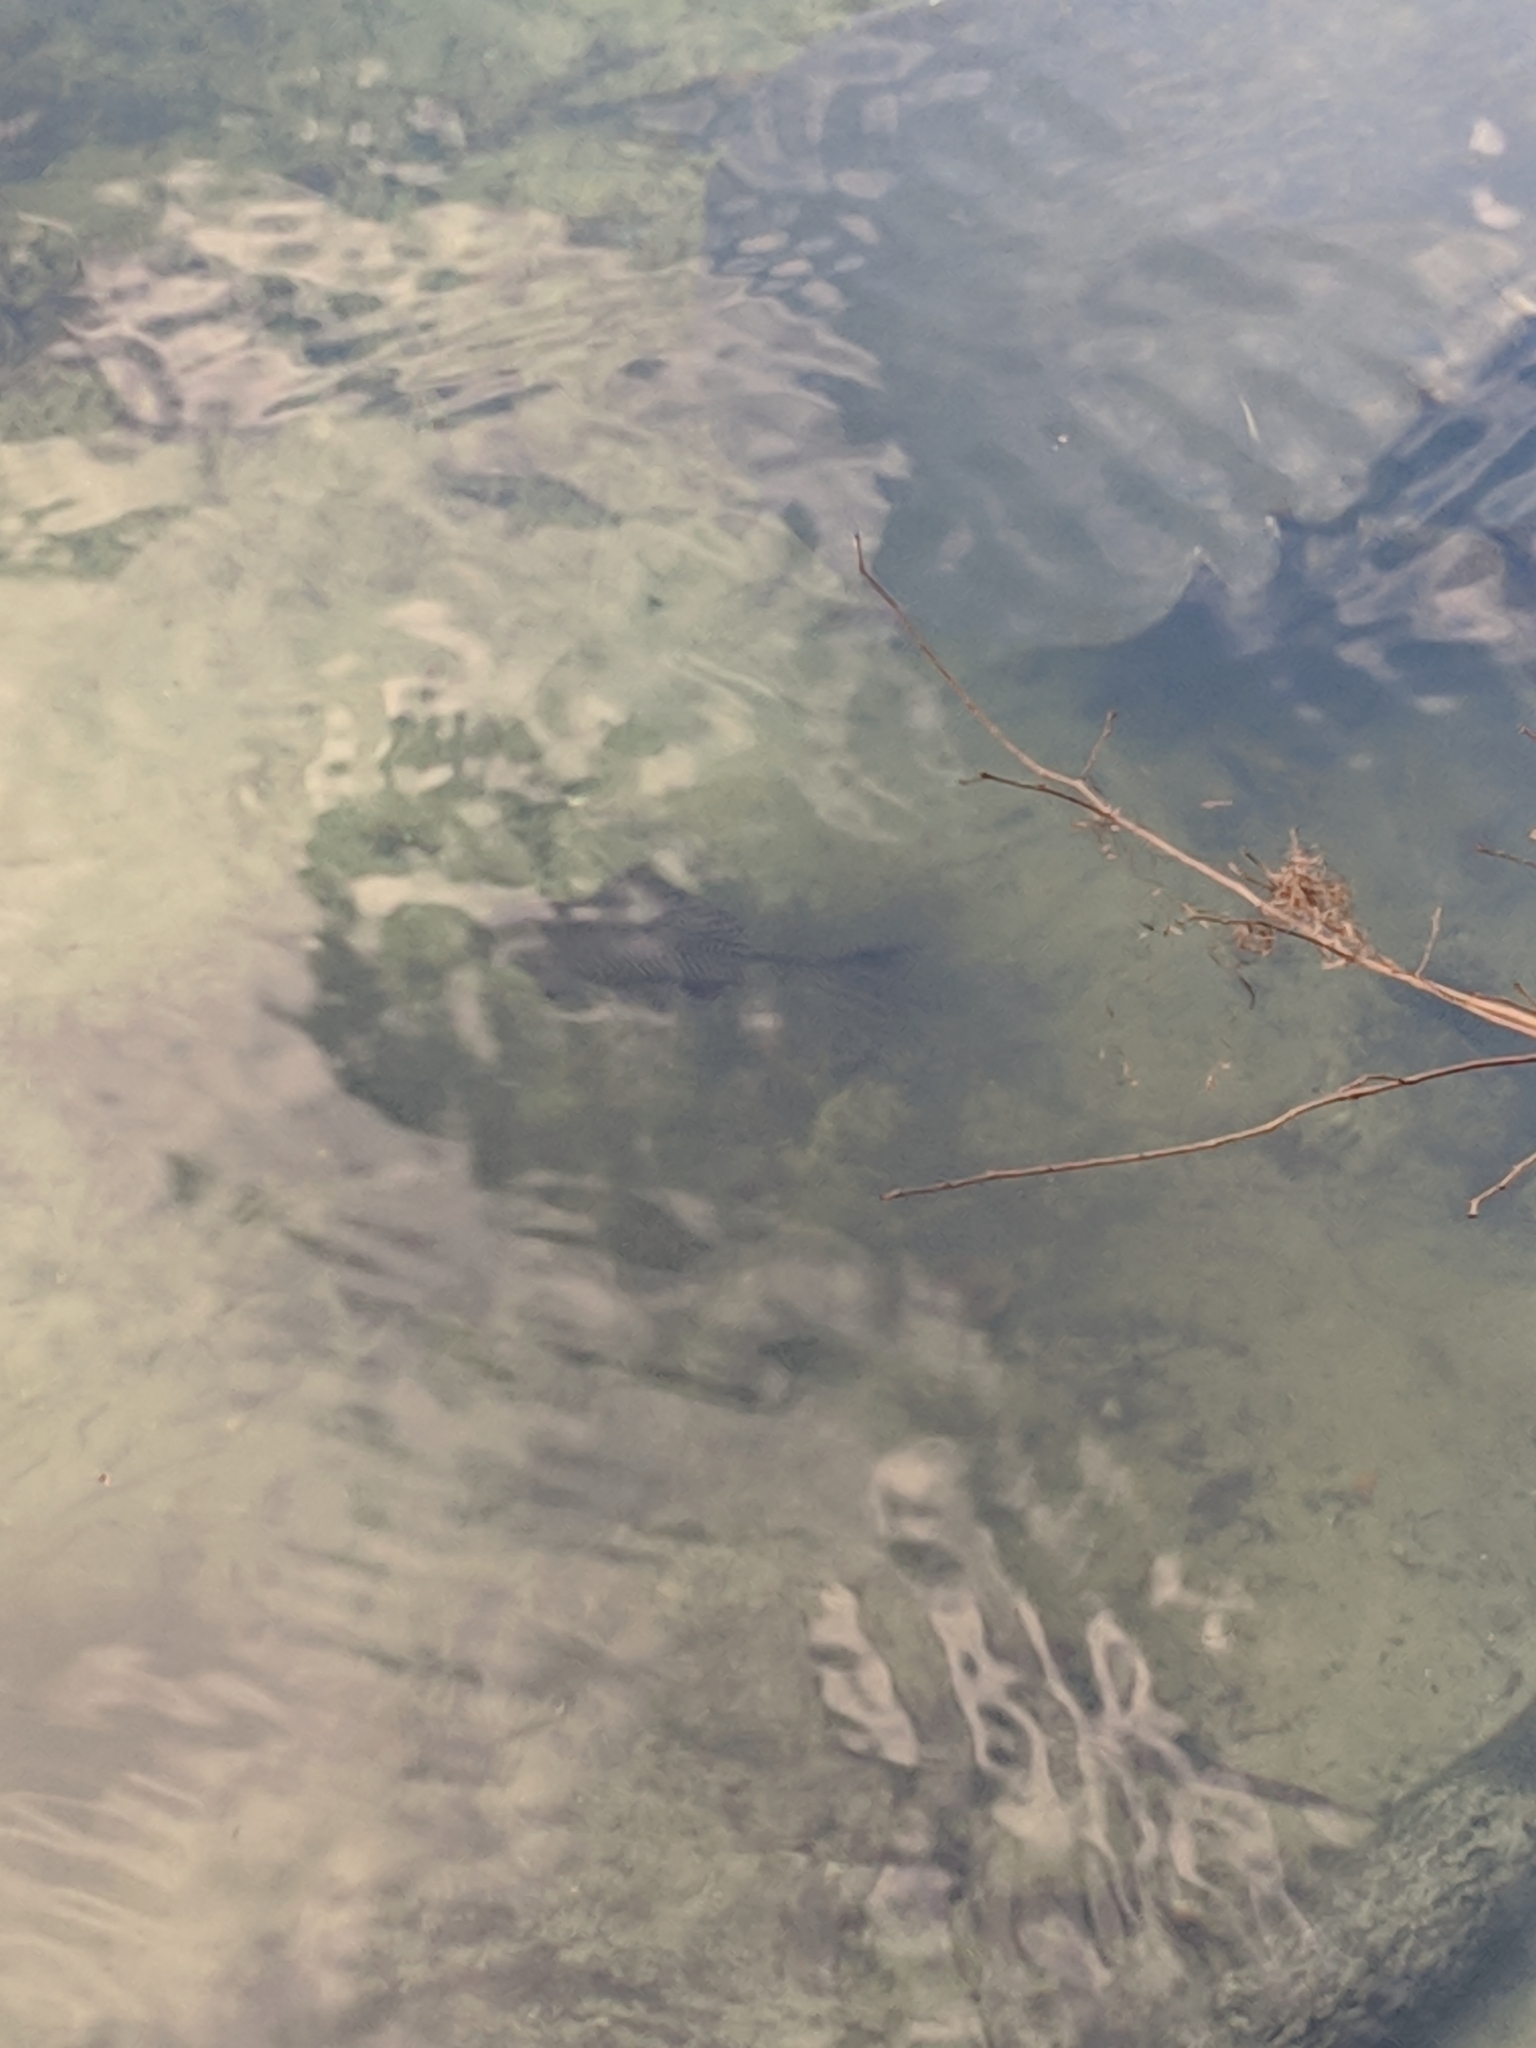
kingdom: Animalia
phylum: Chordata
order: Siluriformes
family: Loricariidae
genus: Pterygoplichthys
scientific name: Pterygoplichthys
